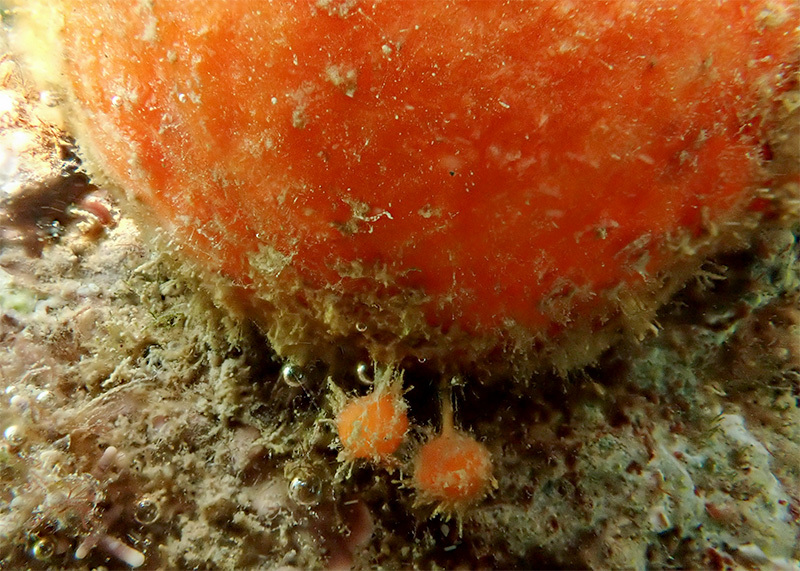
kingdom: Animalia
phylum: Porifera
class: Demospongiae
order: Tethyida
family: Tethyidae
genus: Tethya
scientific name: Tethya aurantium
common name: Golf ball sponge
